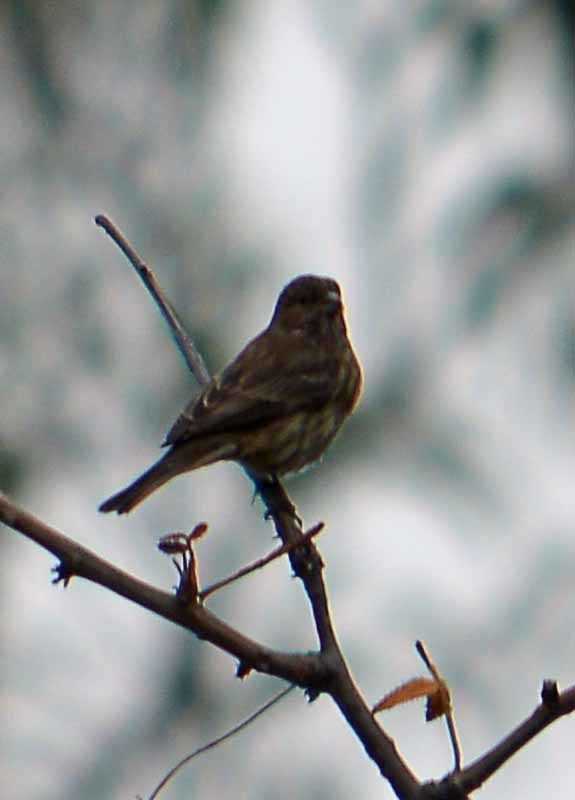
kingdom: Animalia
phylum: Chordata
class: Aves
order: Passeriformes
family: Fringillidae
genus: Haemorhous
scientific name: Haemorhous mexicanus
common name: House finch
